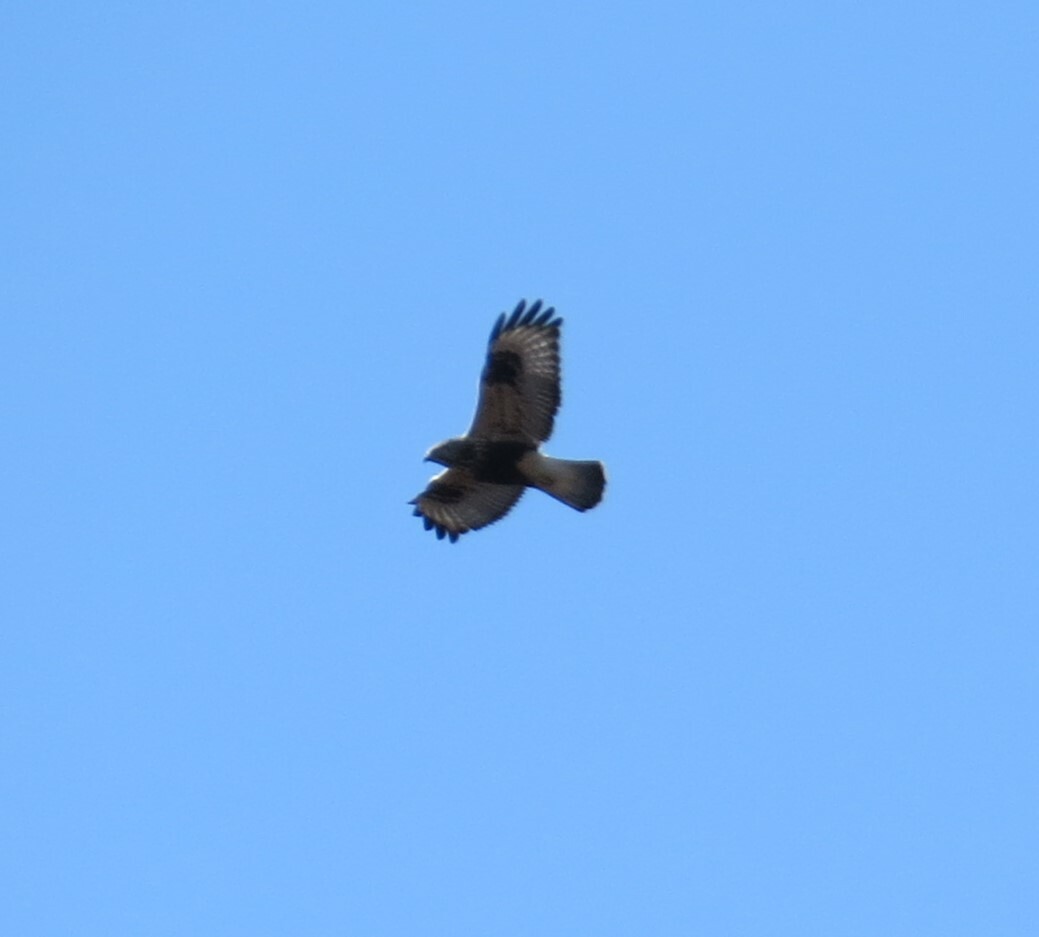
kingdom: Animalia
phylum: Chordata
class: Aves
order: Accipitriformes
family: Accipitridae
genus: Buteo
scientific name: Buteo lagopus
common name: Rough-legged buzzard
